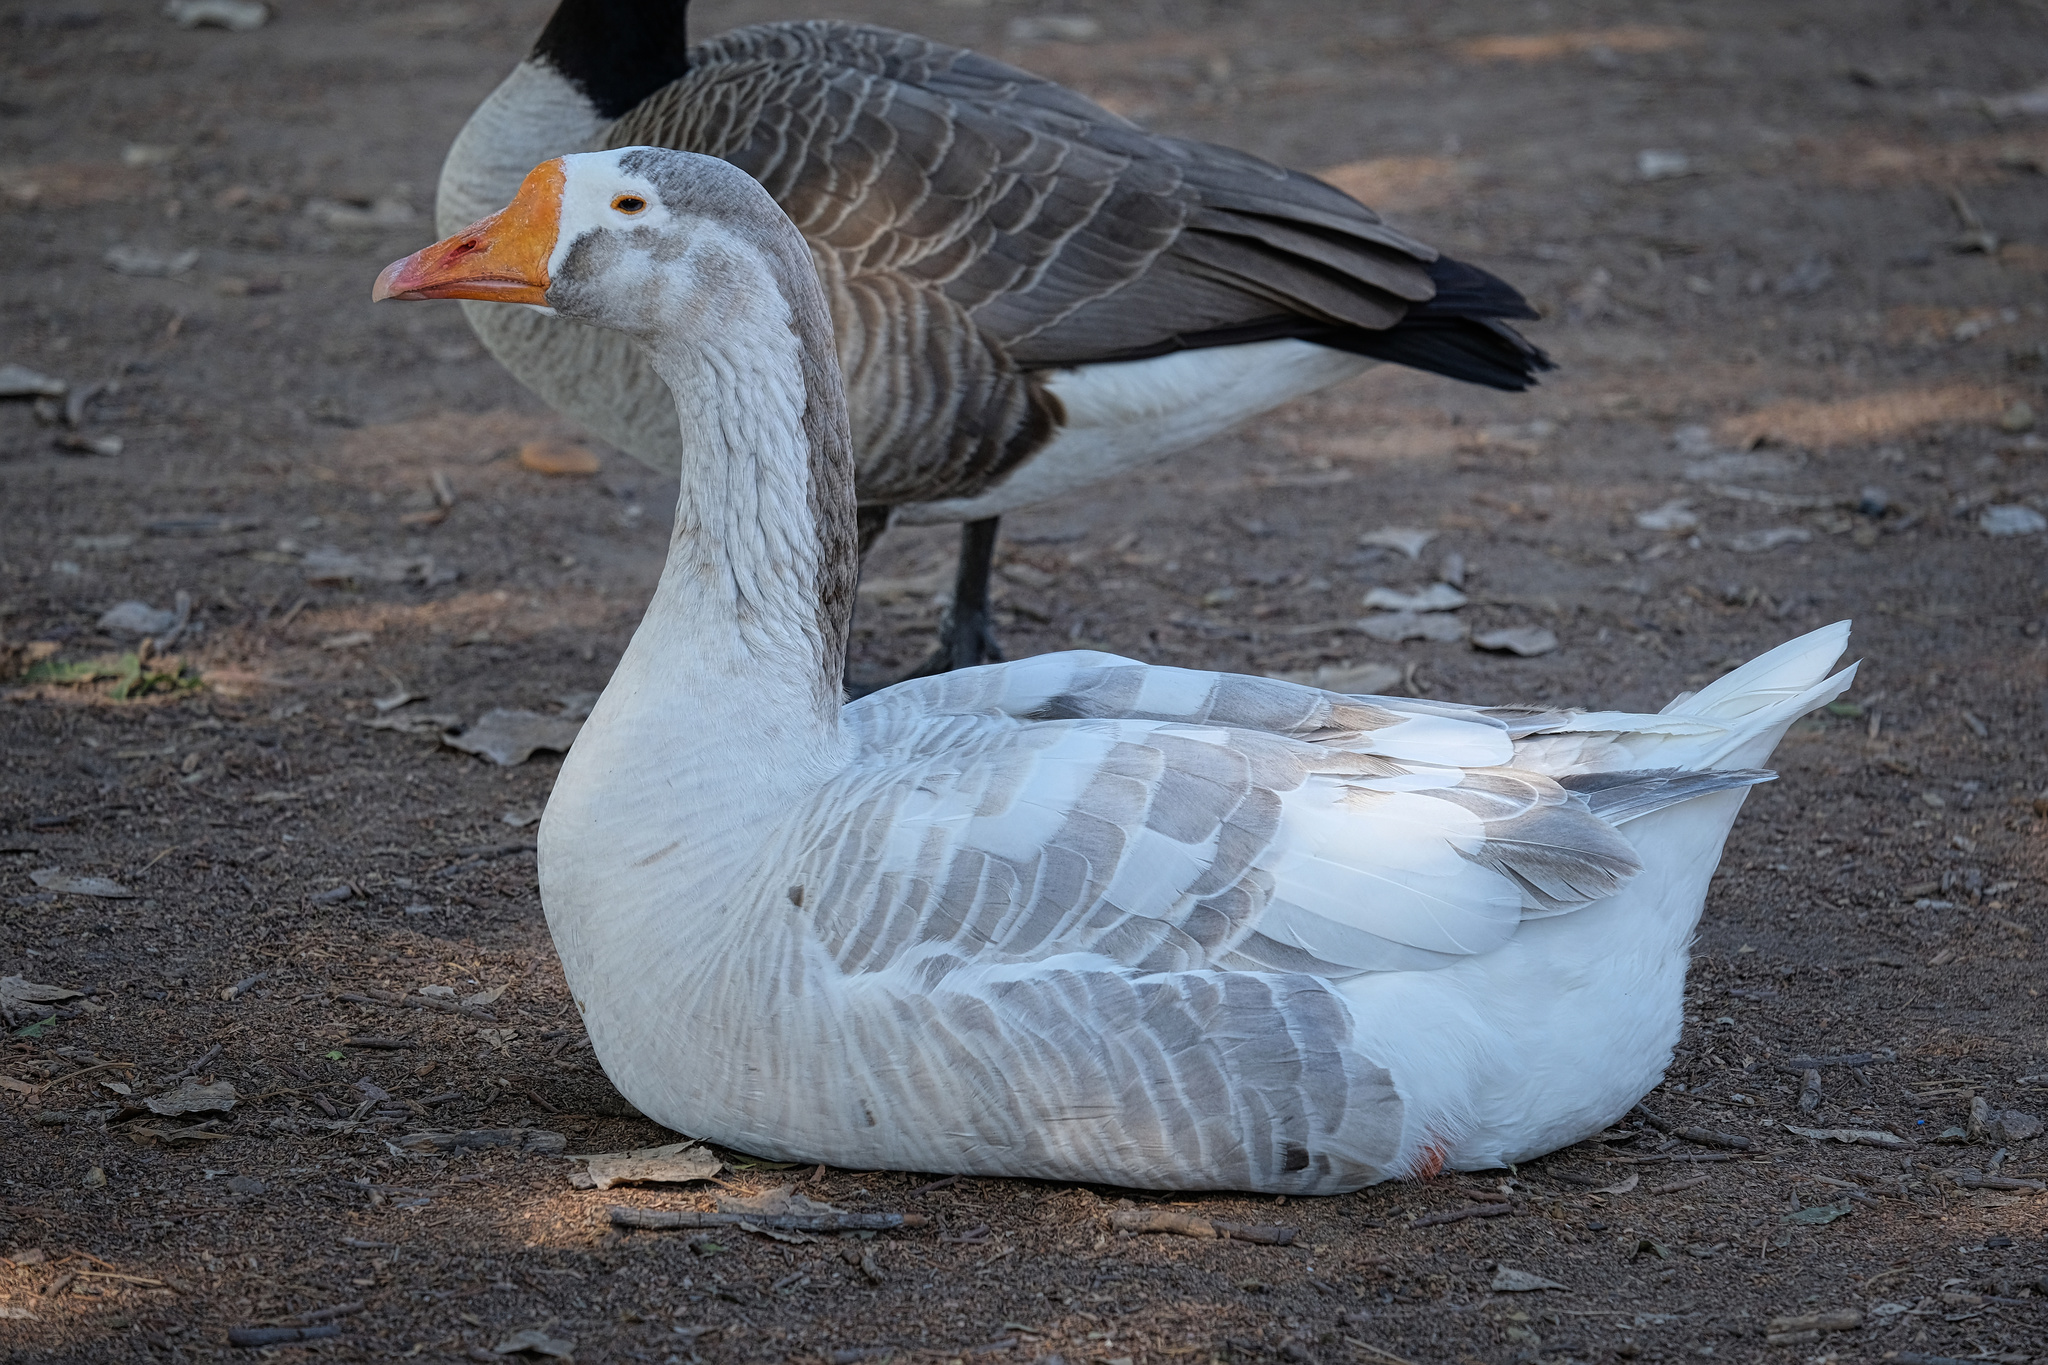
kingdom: Animalia
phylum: Chordata
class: Aves
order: Anseriformes
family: Anatidae
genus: Anser
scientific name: Anser
